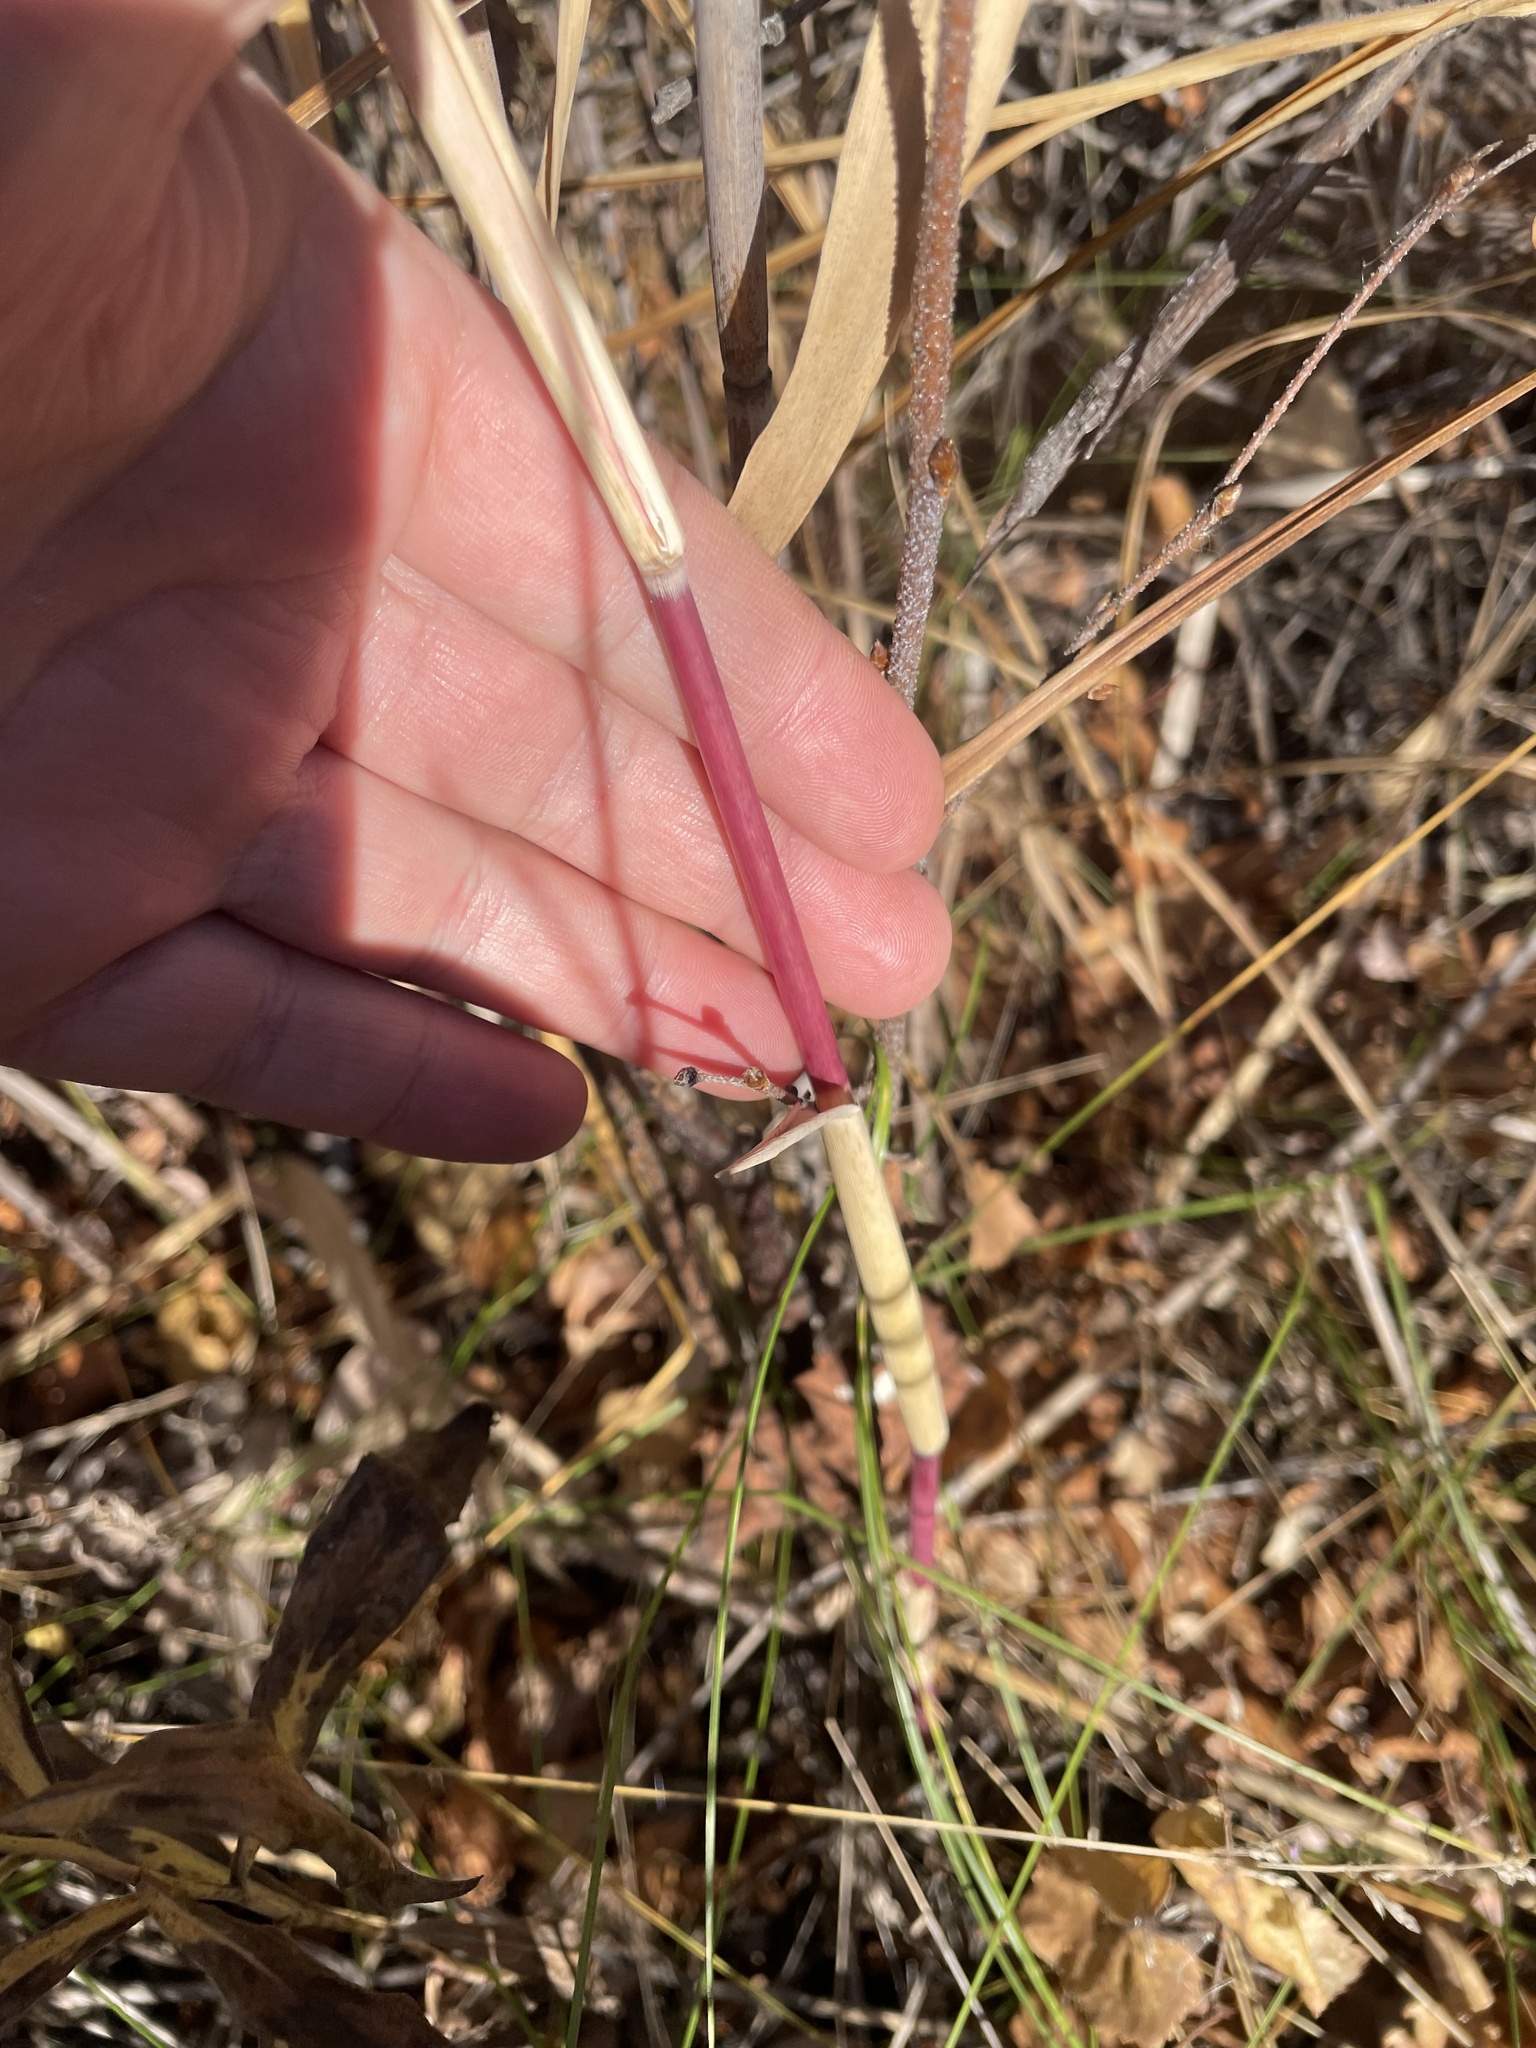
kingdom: Plantae
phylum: Tracheophyta
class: Liliopsida
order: Poales
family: Poaceae
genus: Phragmites
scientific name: Phragmites australis
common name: Common reed
